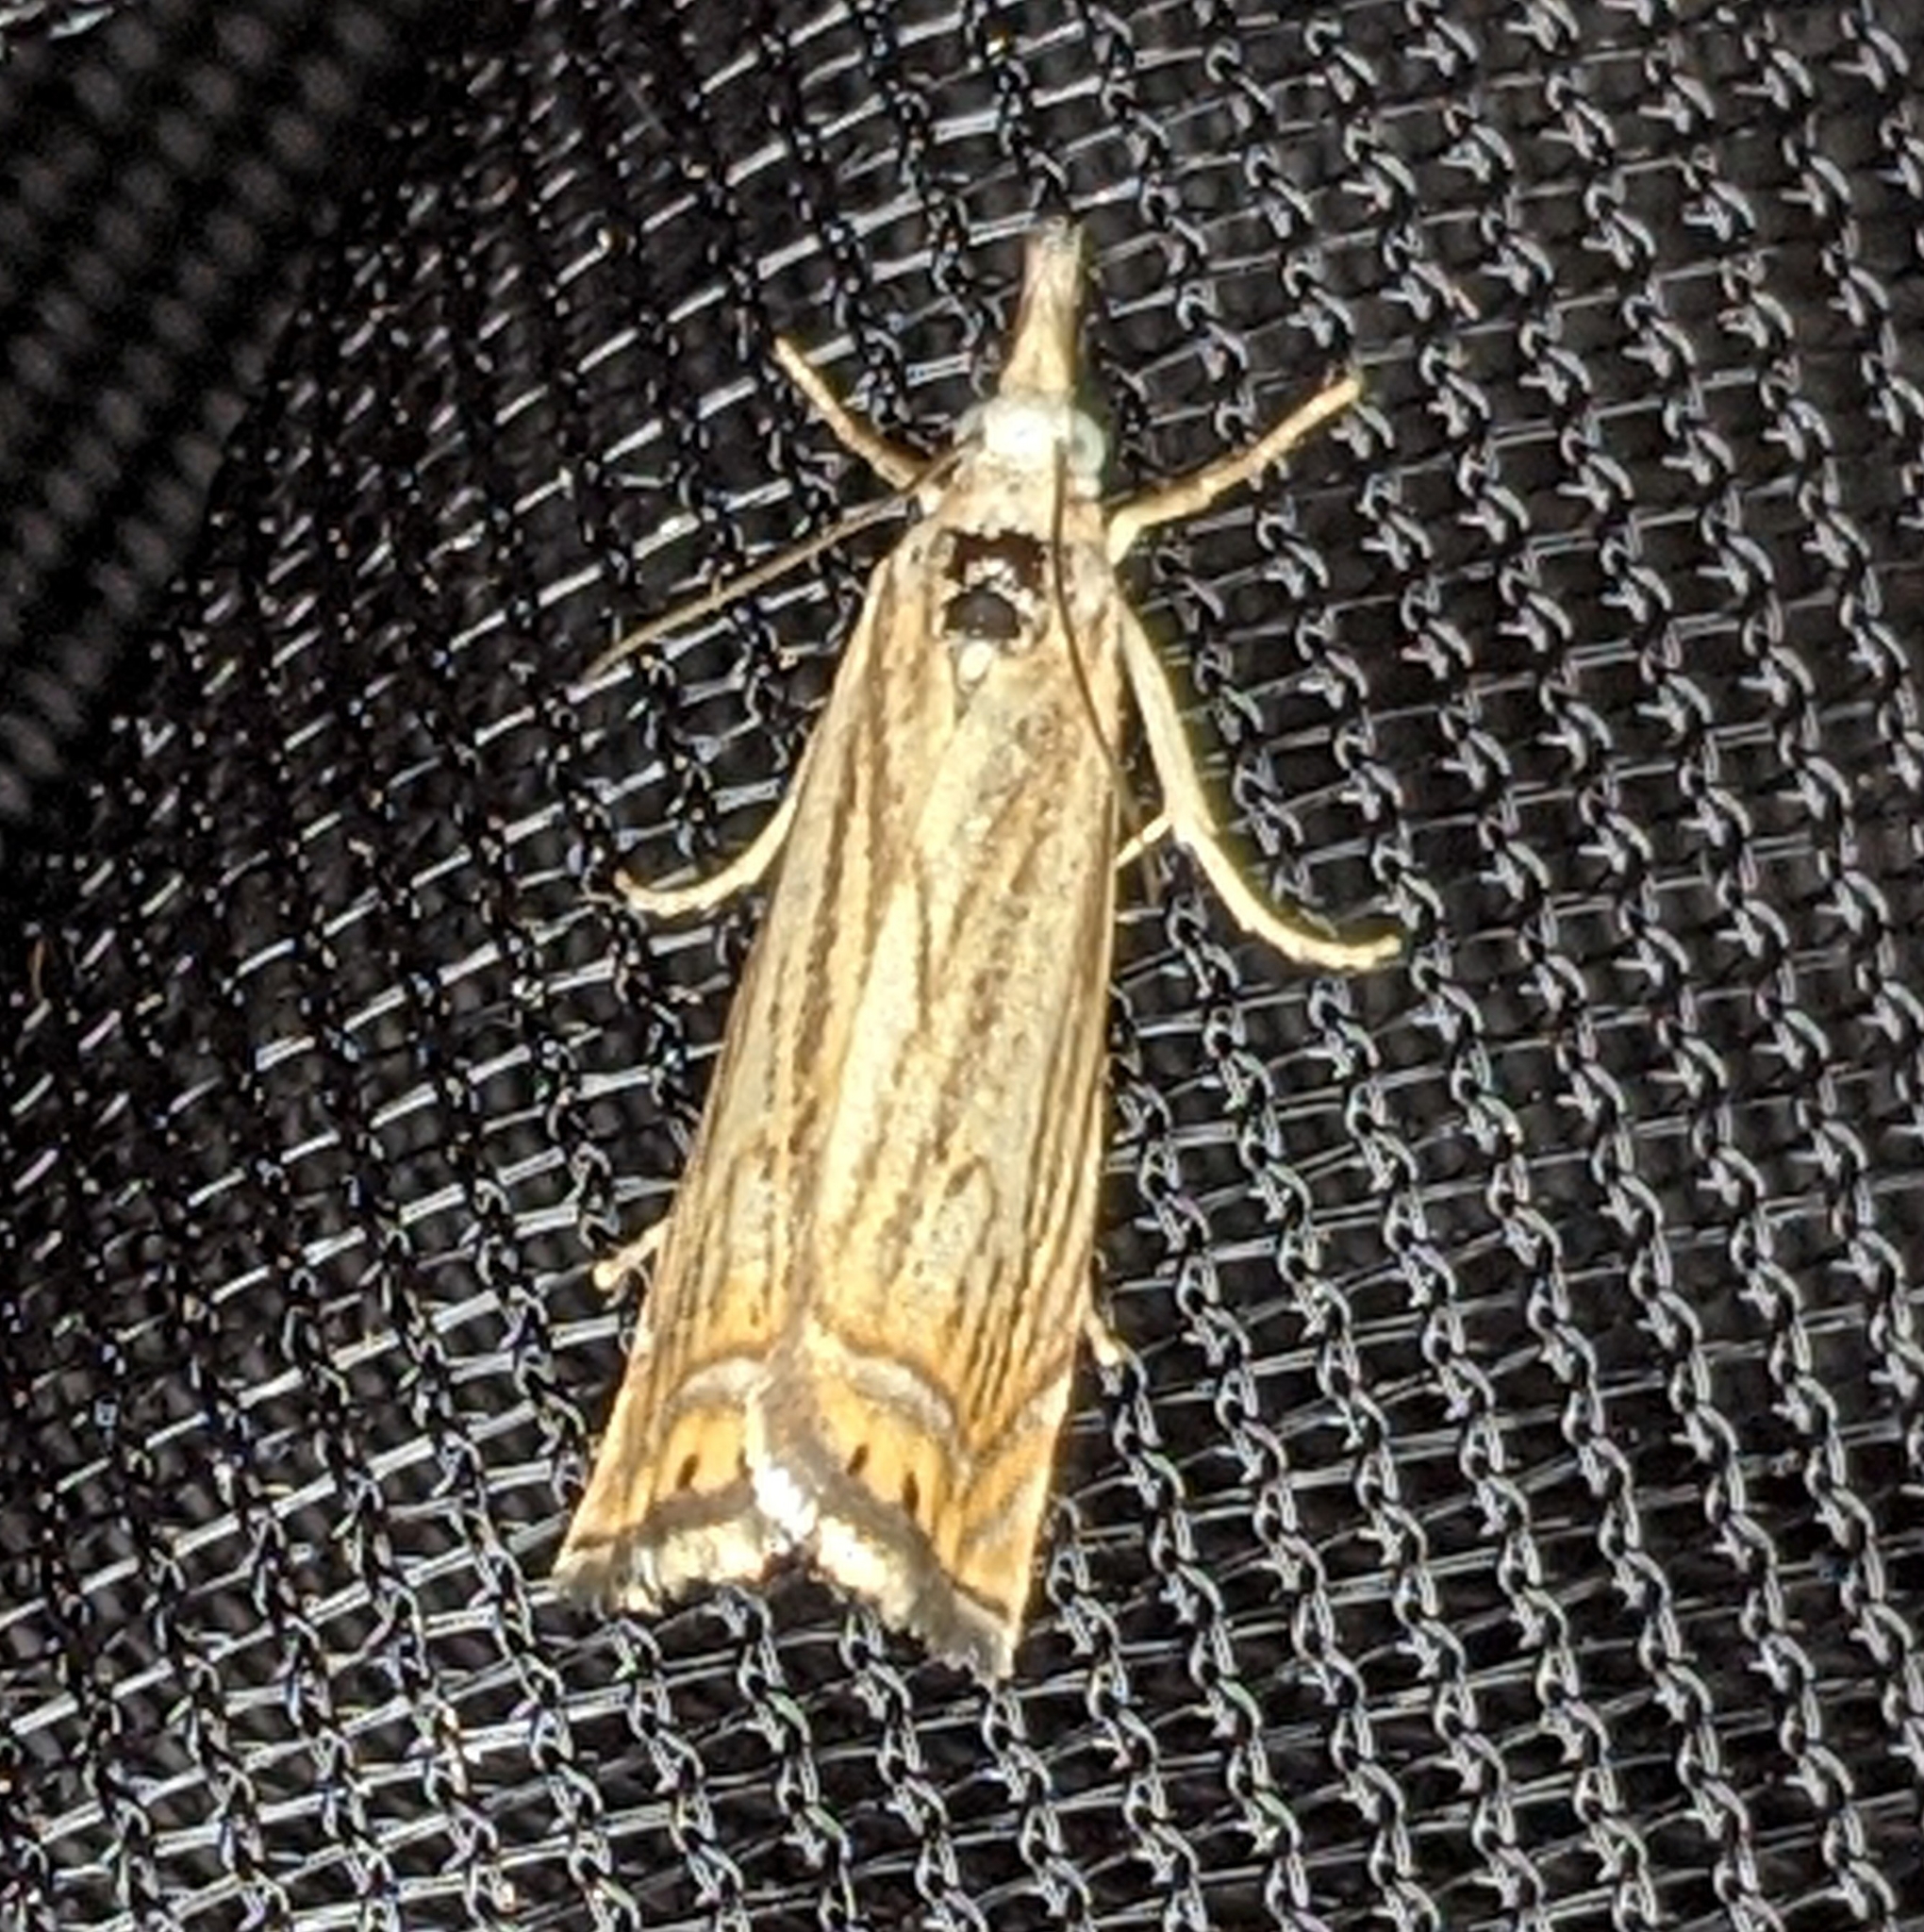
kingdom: Animalia
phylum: Arthropoda
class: Insecta
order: Lepidoptera
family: Crambidae
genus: Chrysoteuchia
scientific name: Chrysoteuchia topiarius
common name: Topiary grass-veneer
